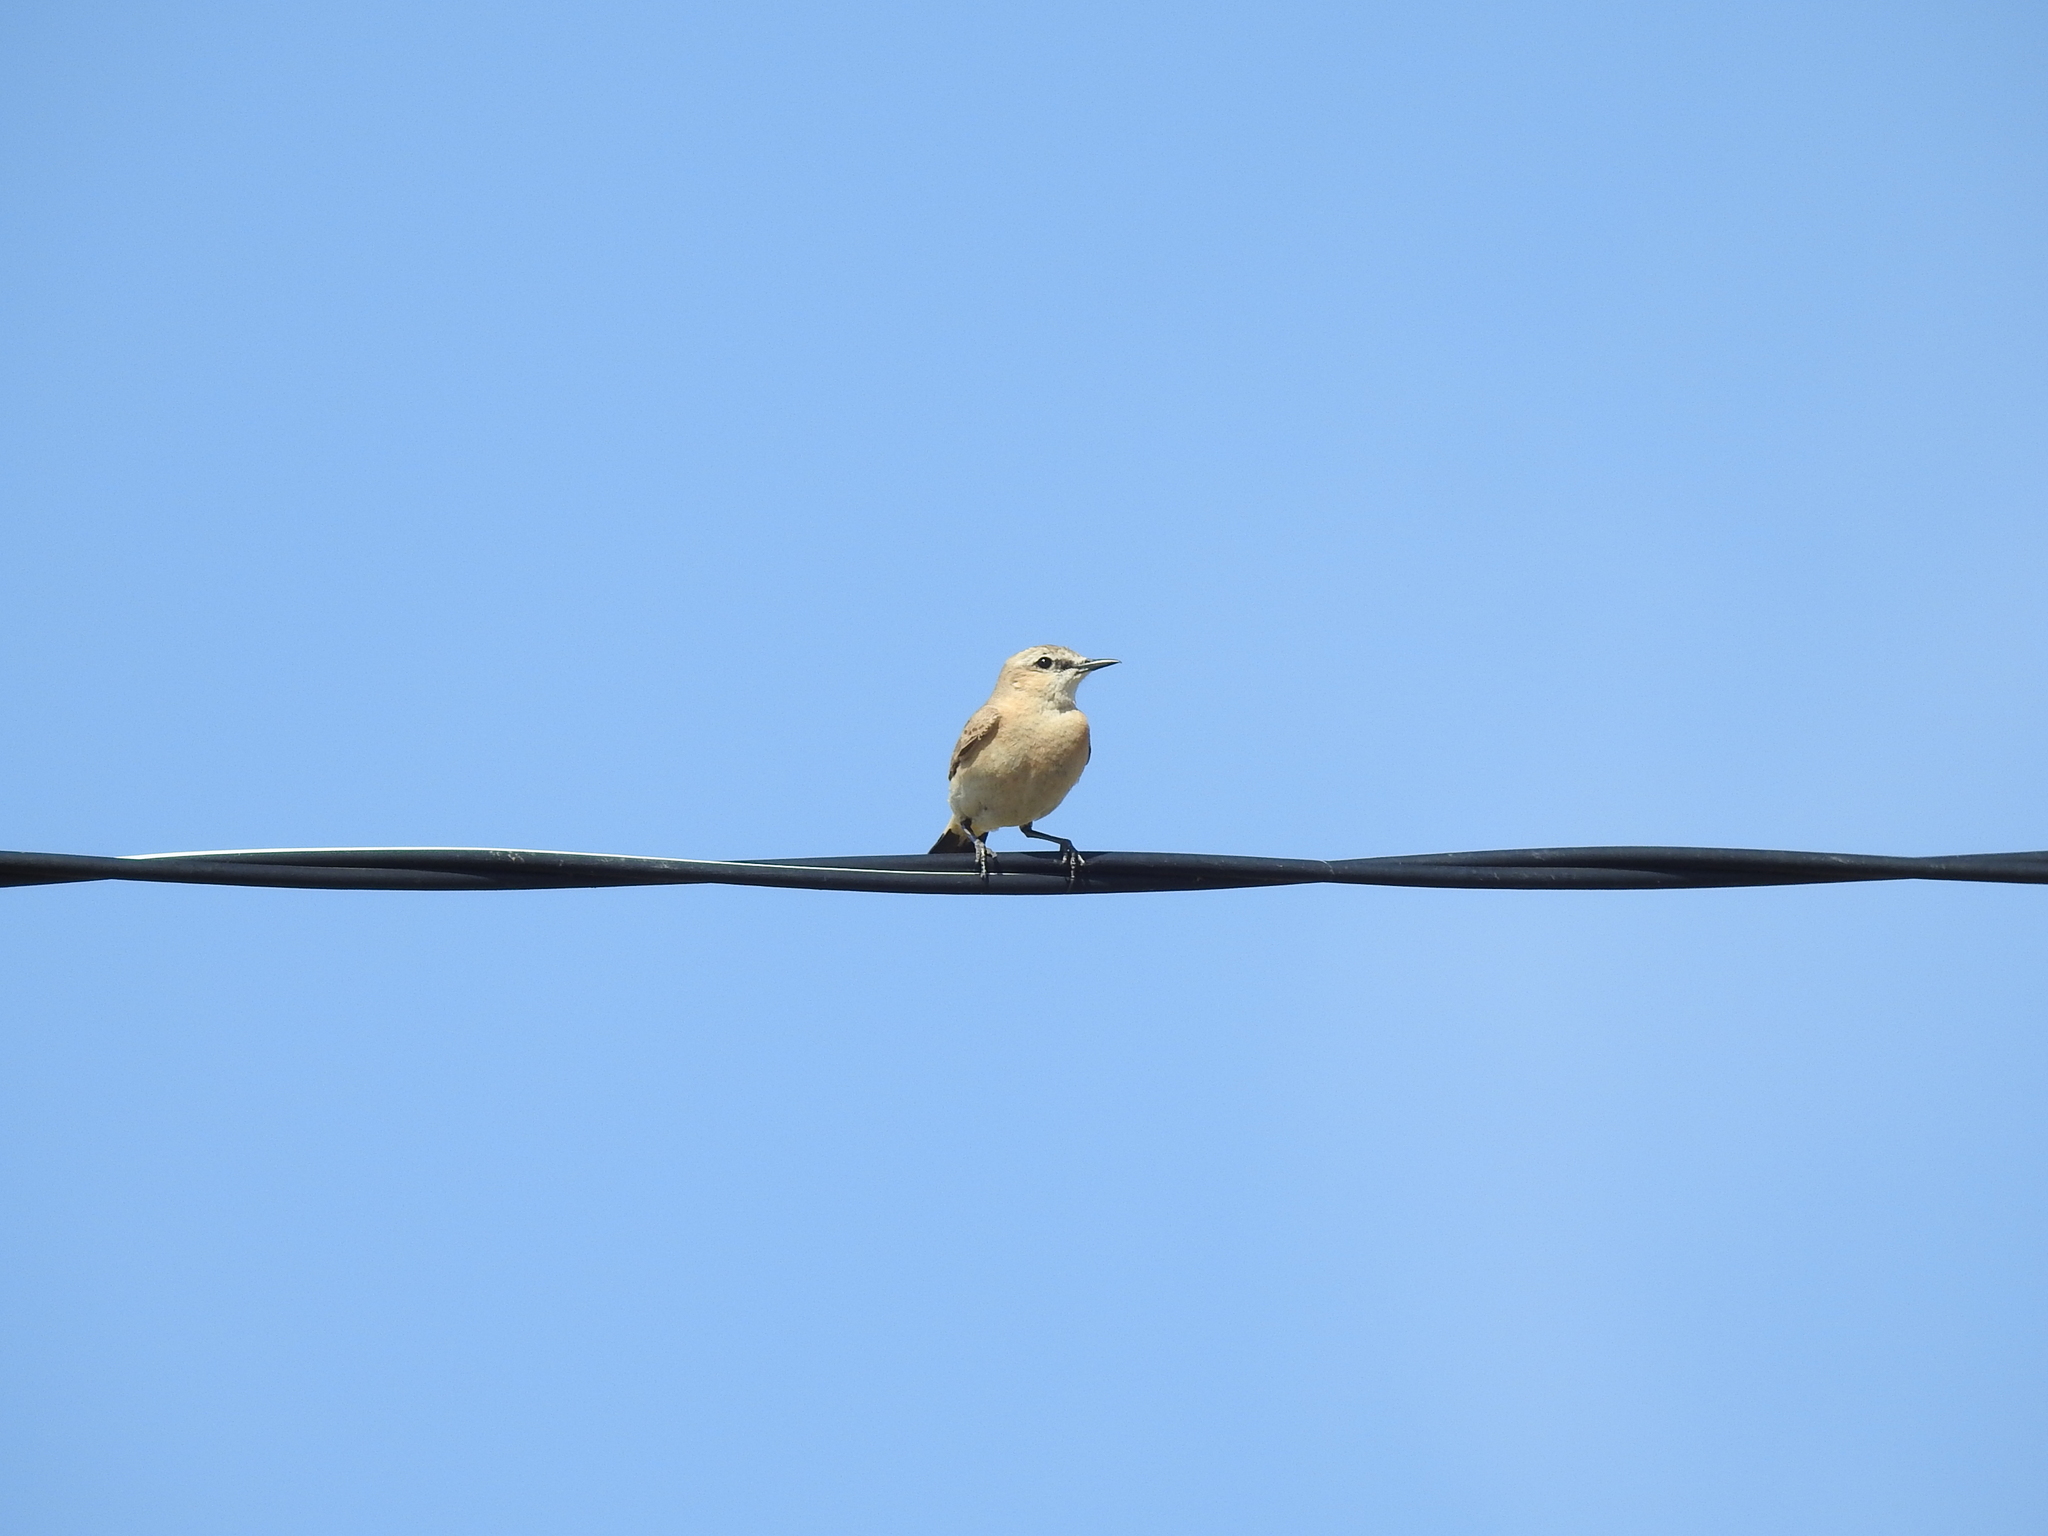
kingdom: Animalia
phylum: Chordata
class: Aves
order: Passeriformes
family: Muscicapidae
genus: Oenanthe
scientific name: Oenanthe isabellina
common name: Isabelline wheatear
